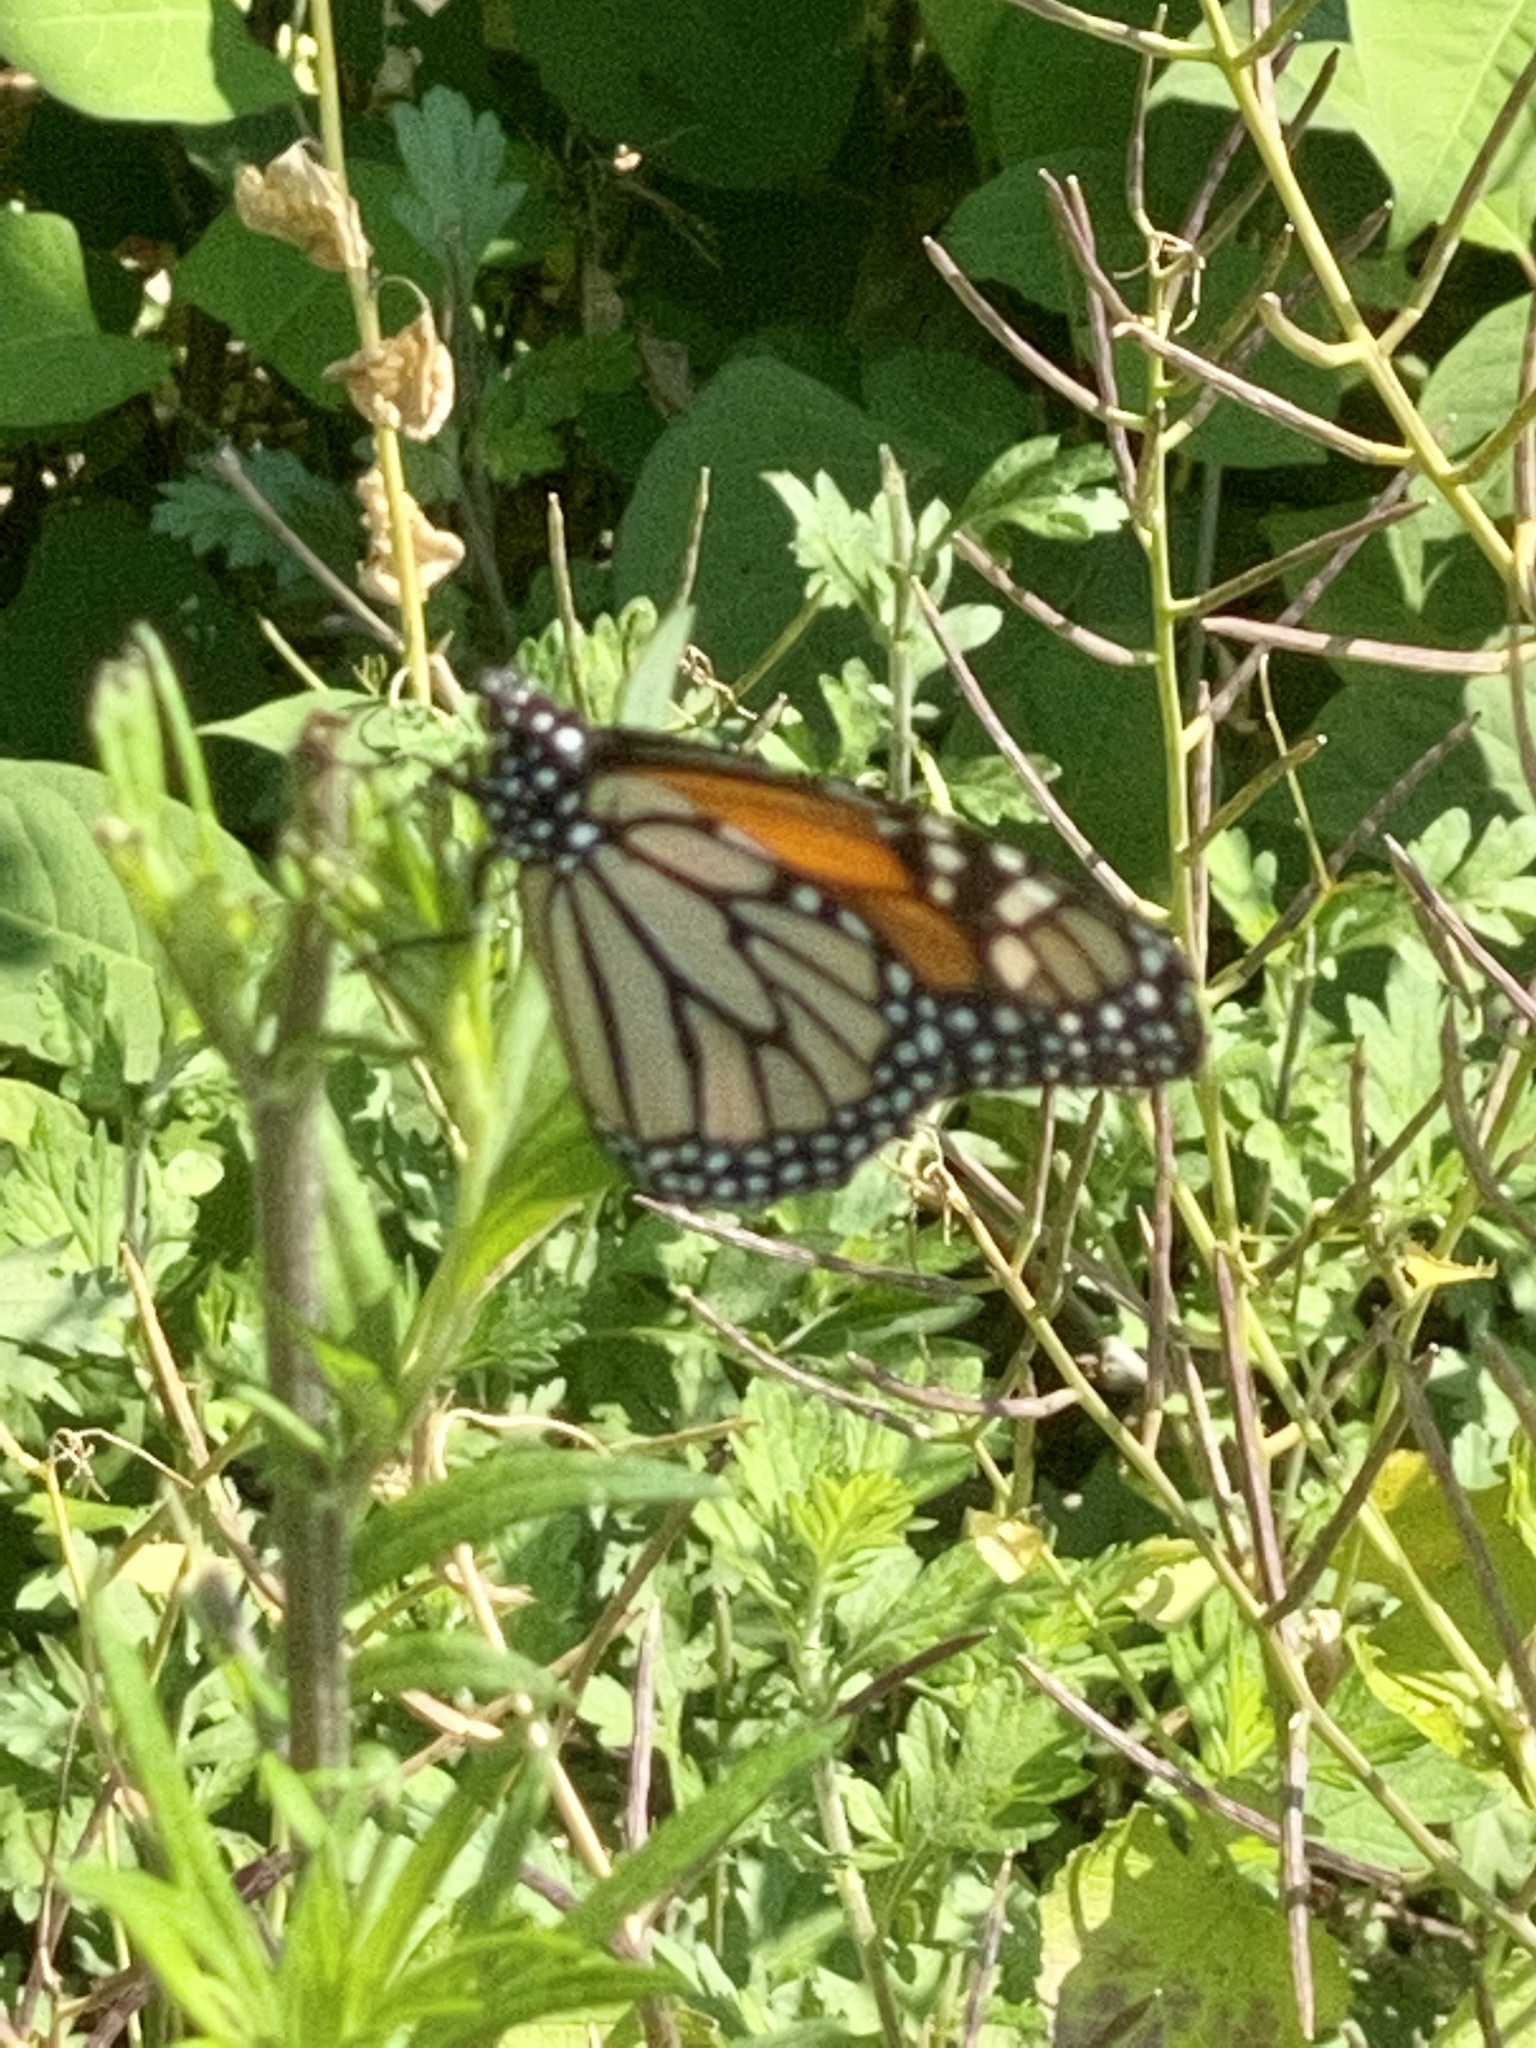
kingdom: Animalia
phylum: Arthropoda
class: Insecta
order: Lepidoptera
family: Nymphalidae
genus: Danaus
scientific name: Danaus plexippus
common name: Monarch
